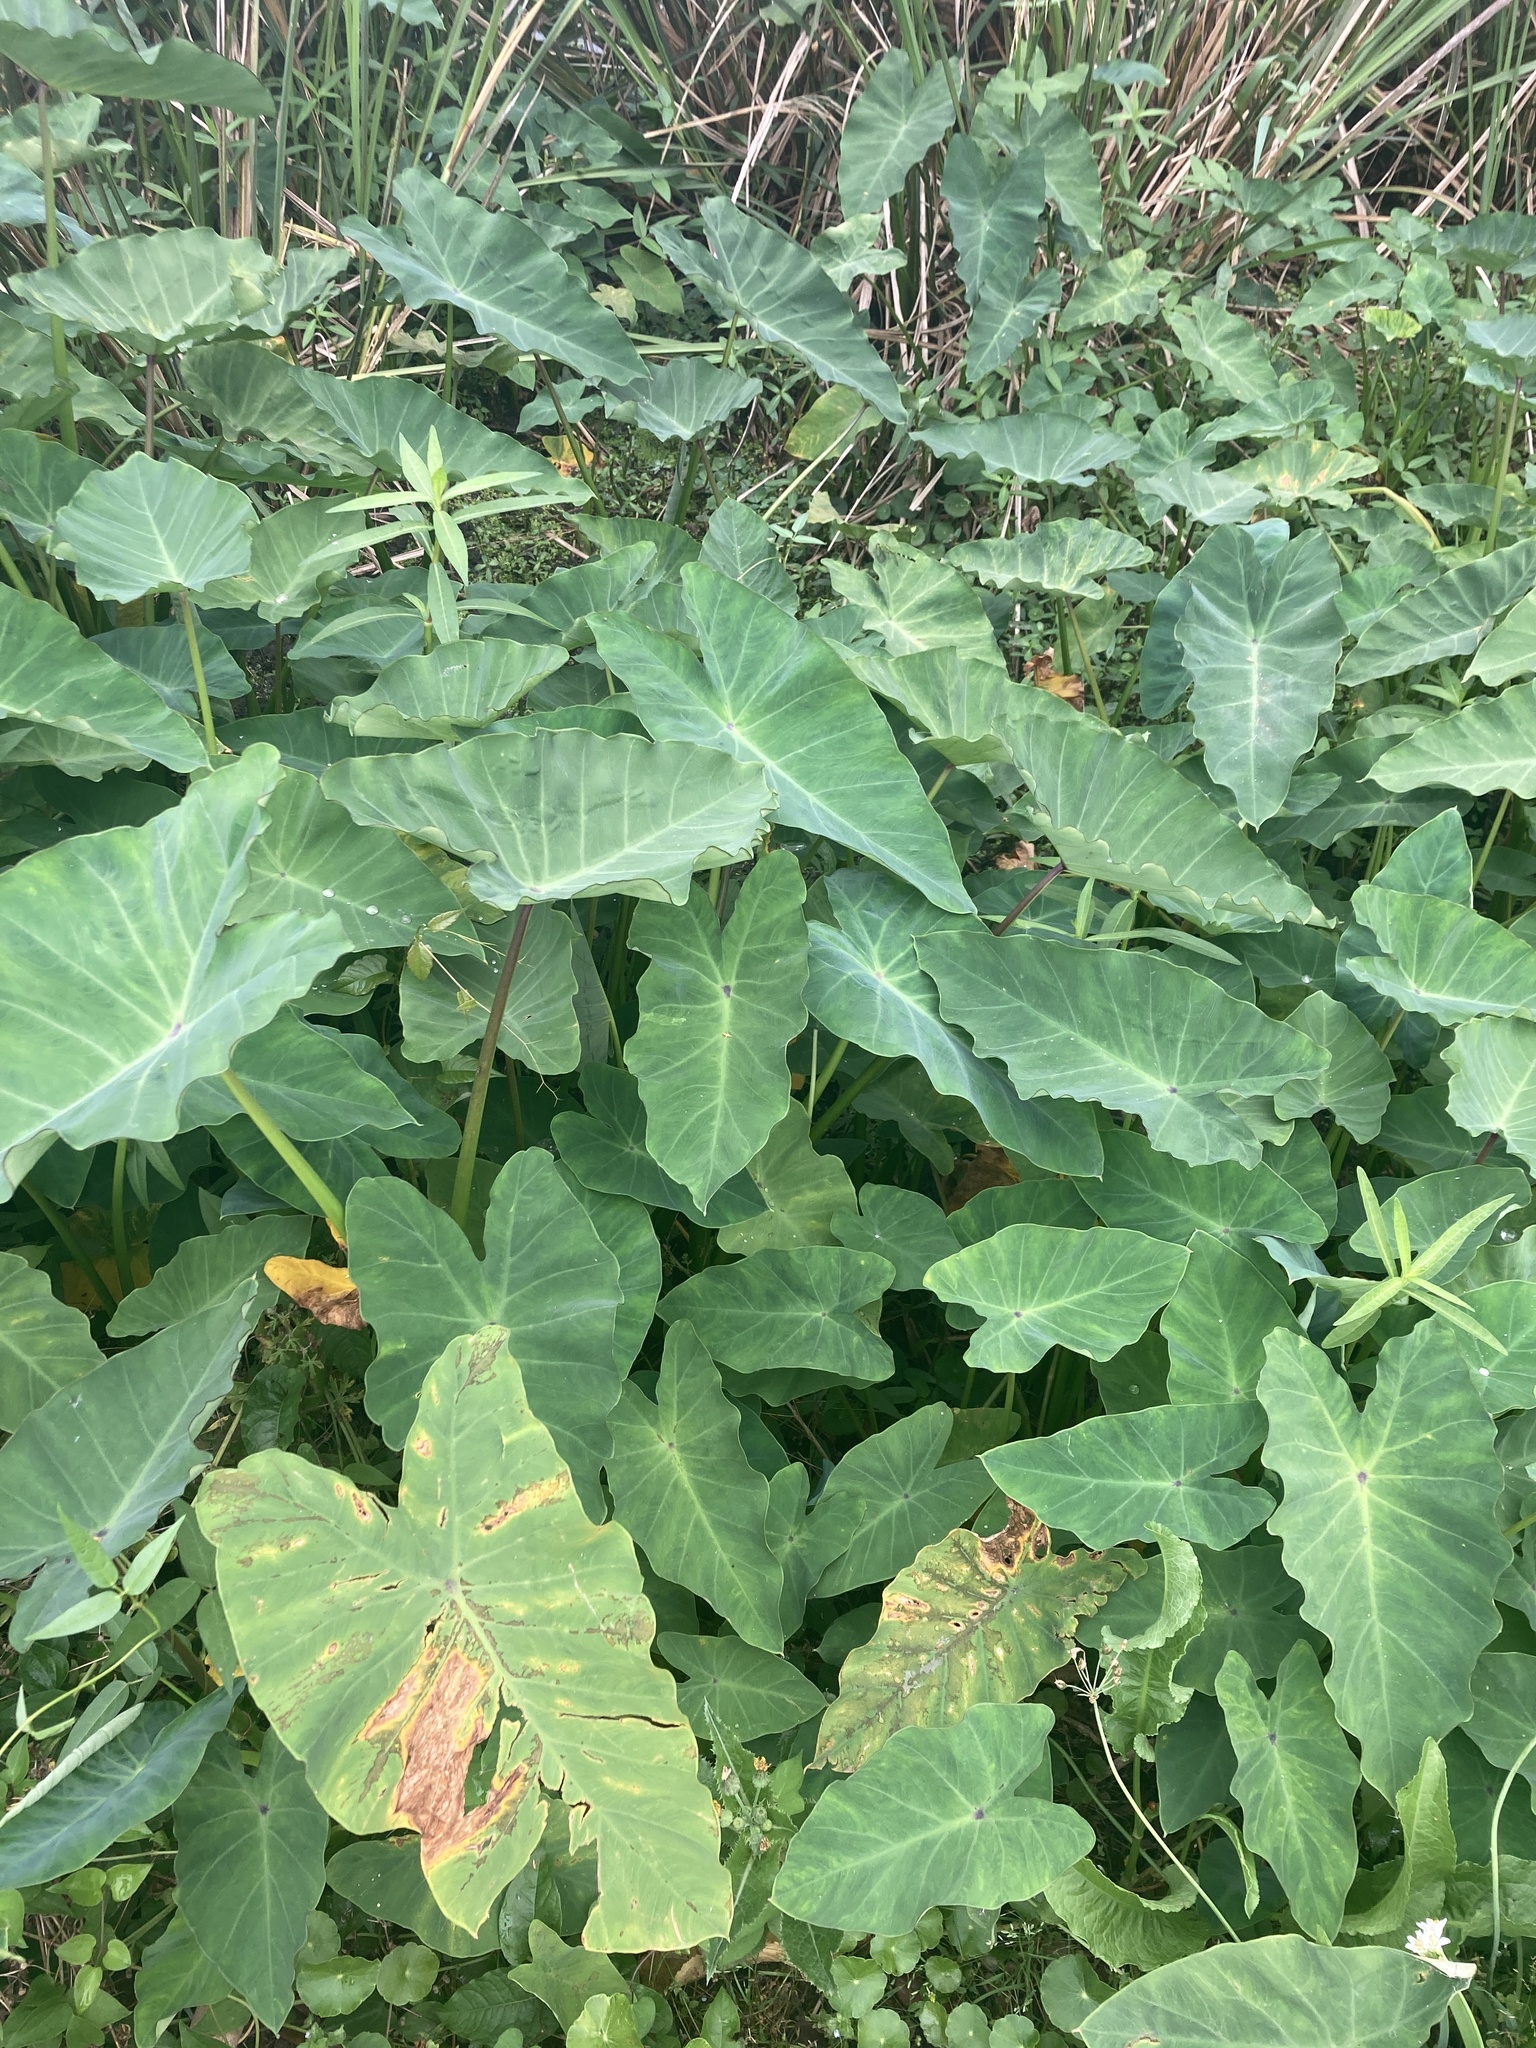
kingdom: Plantae
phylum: Tracheophyta
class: Liliopsida
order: Alismatales
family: Araceae
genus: Colocasia
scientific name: Colocasia esculenta
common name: Taro
